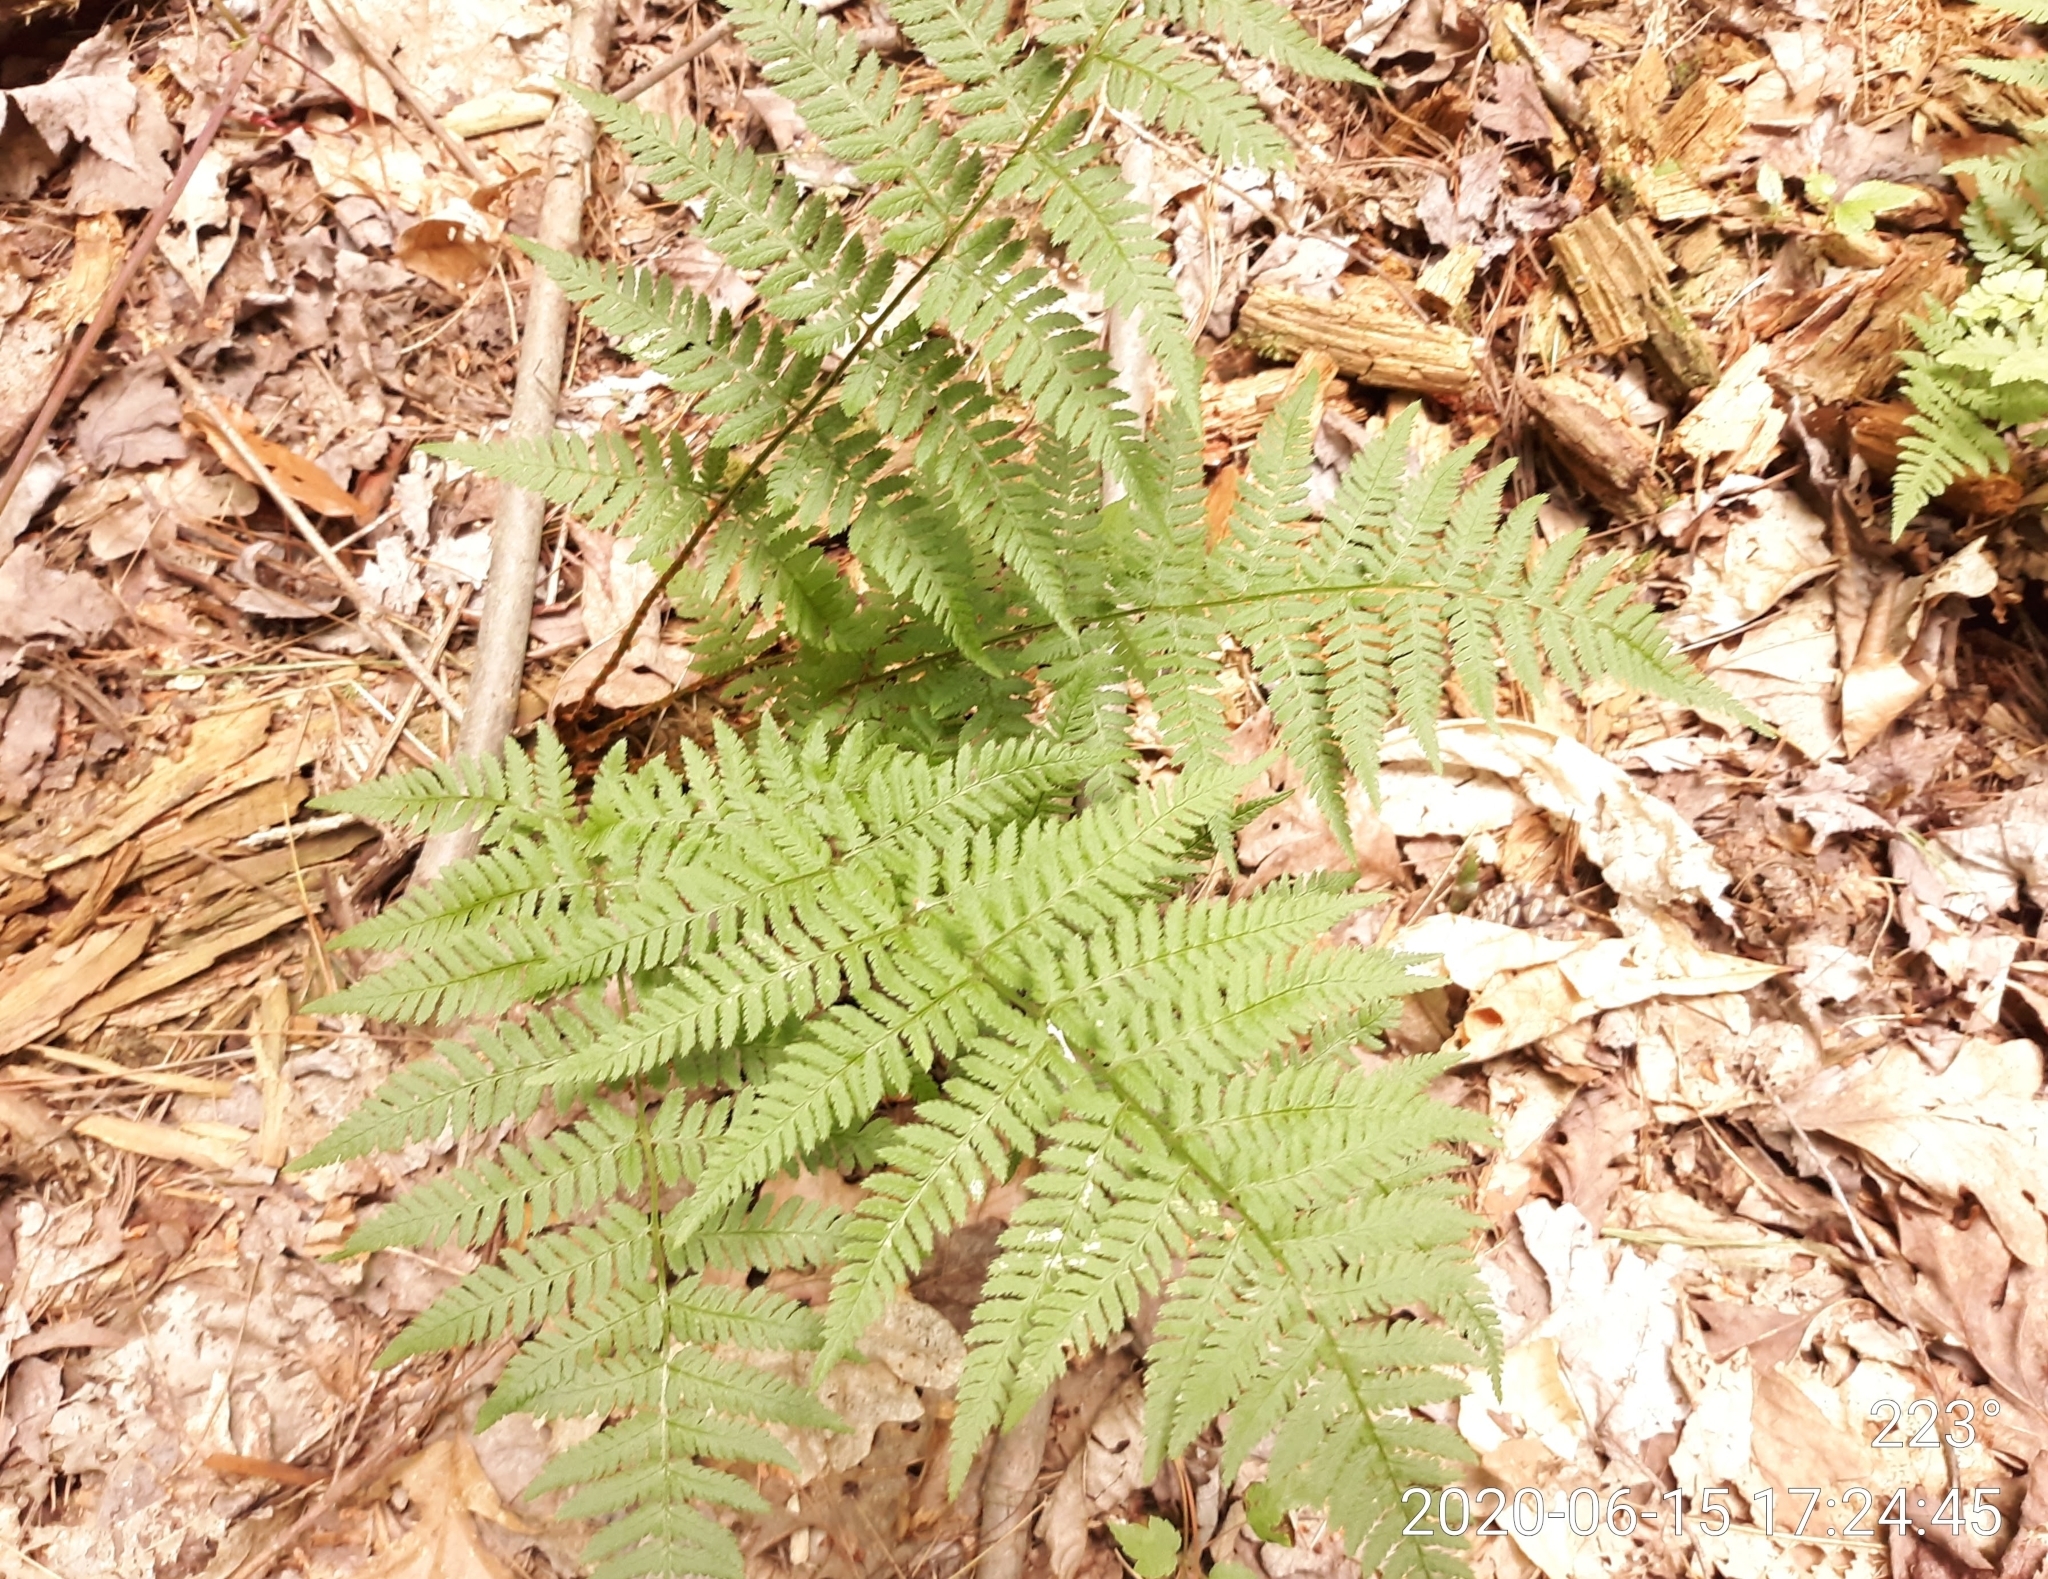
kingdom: Plantae
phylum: Tracheophyta
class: Polypodiopsida
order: Polypodiales
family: Dryopteridaceae
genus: Dryopteris
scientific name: Dryopteris carthusiana
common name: Narrow buckler-fern
